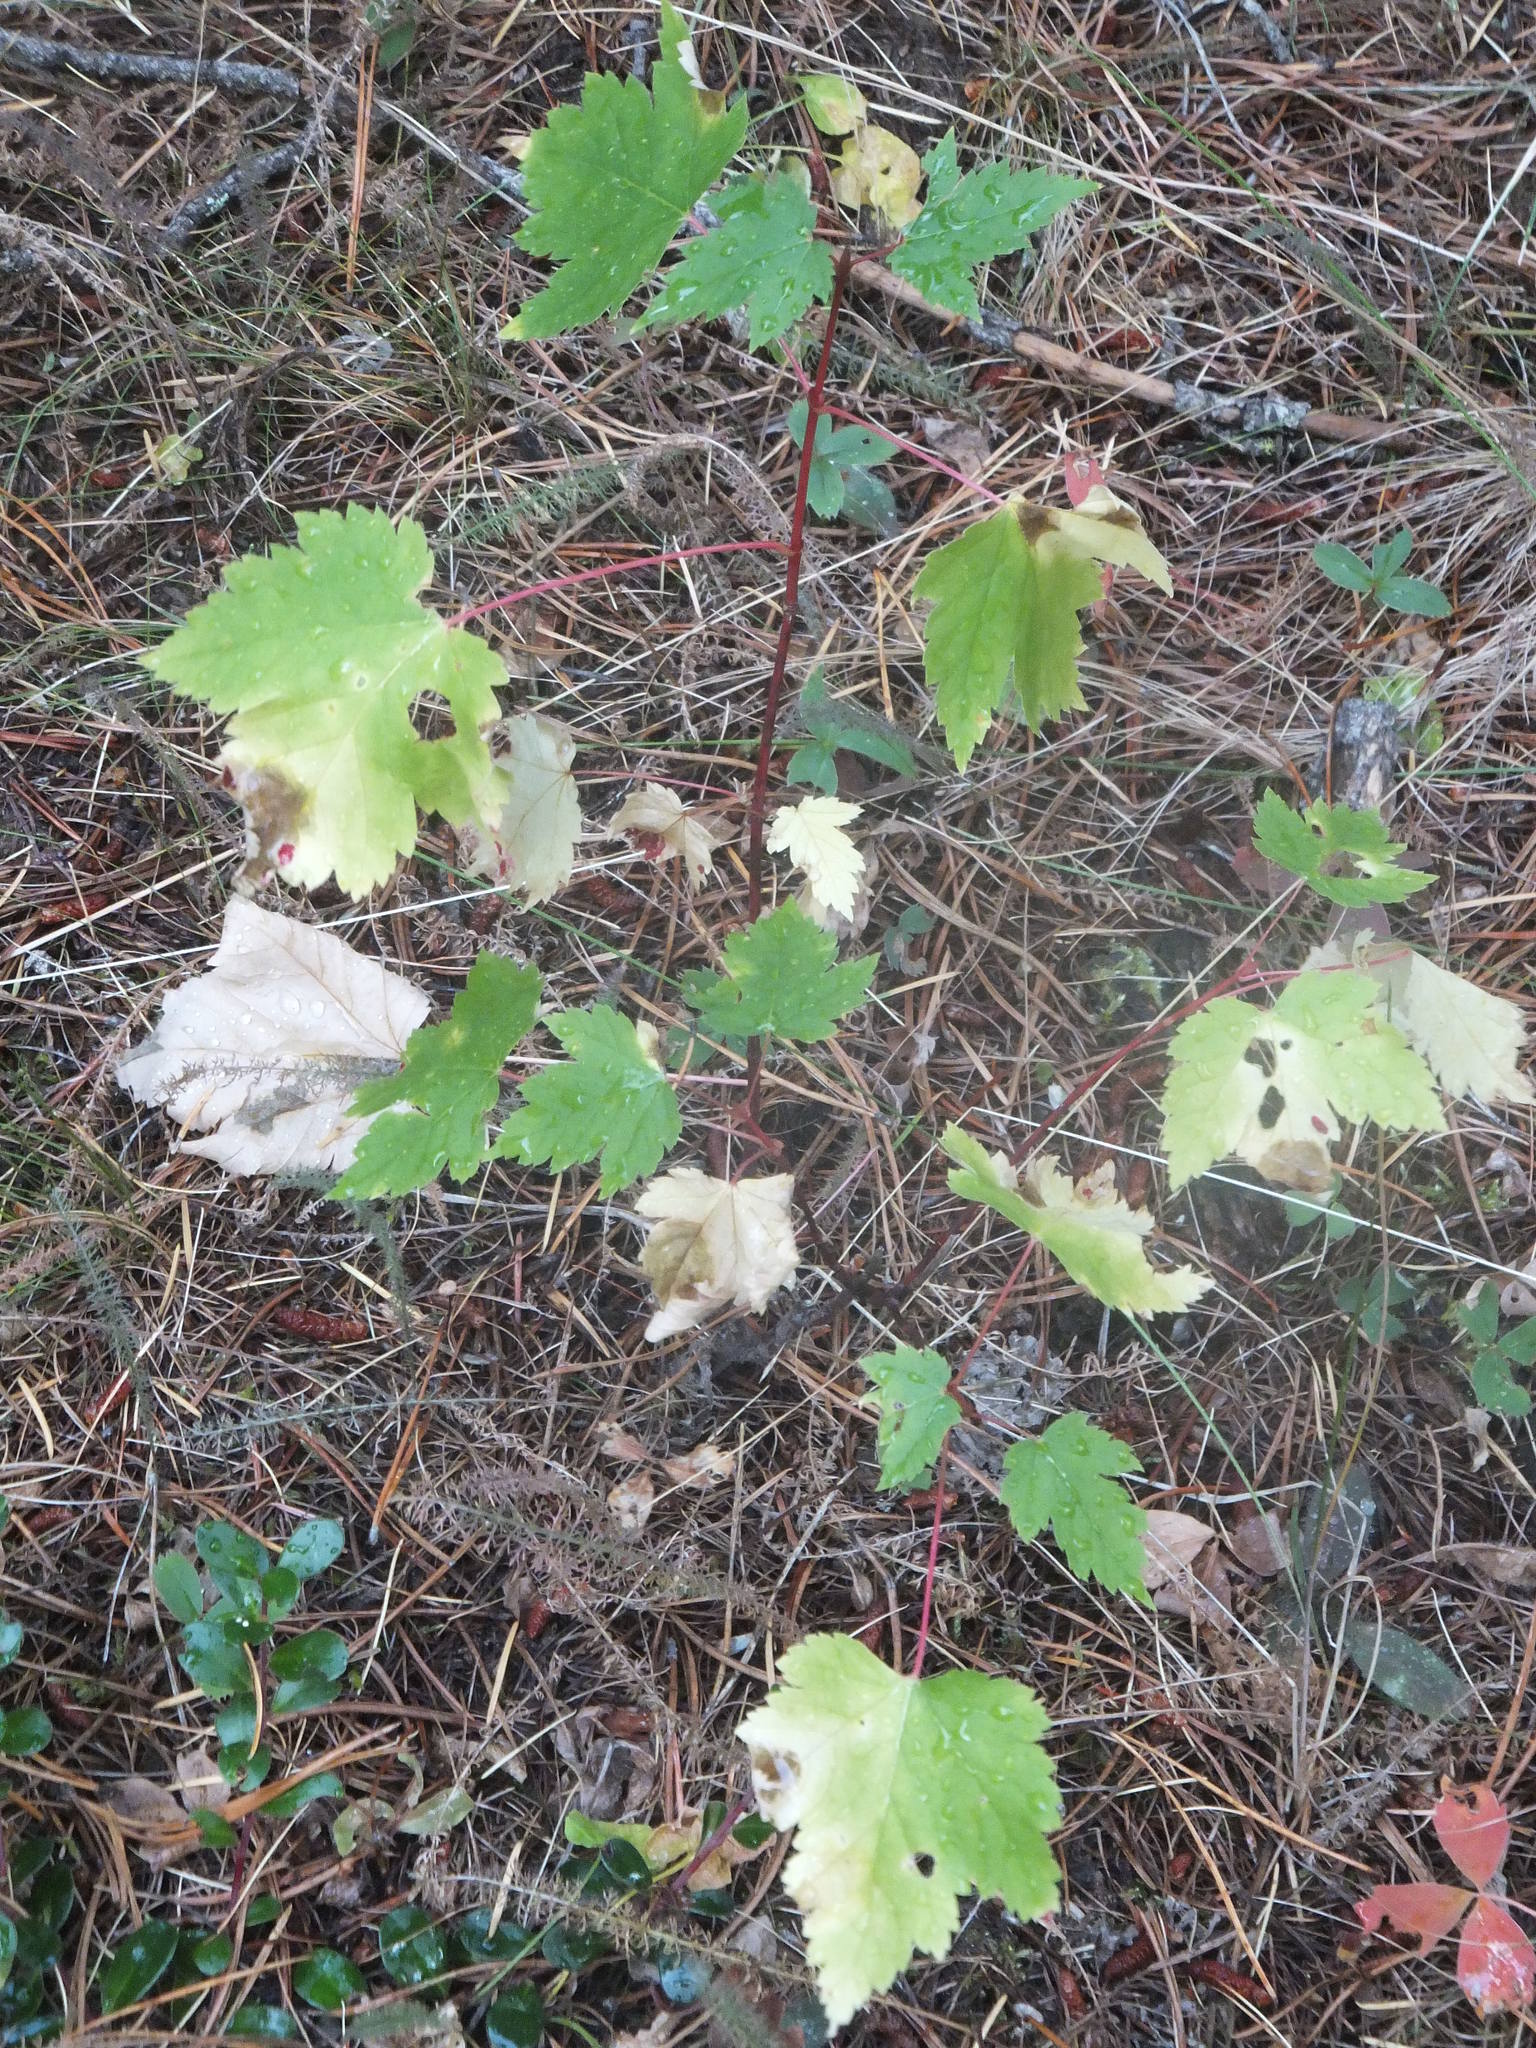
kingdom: Plantae
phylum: Tracheophyta
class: Magnoliopsida
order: Sapindales
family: Sapindaceae
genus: Acer
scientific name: Acer glabrum
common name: Rocky mountain maple
